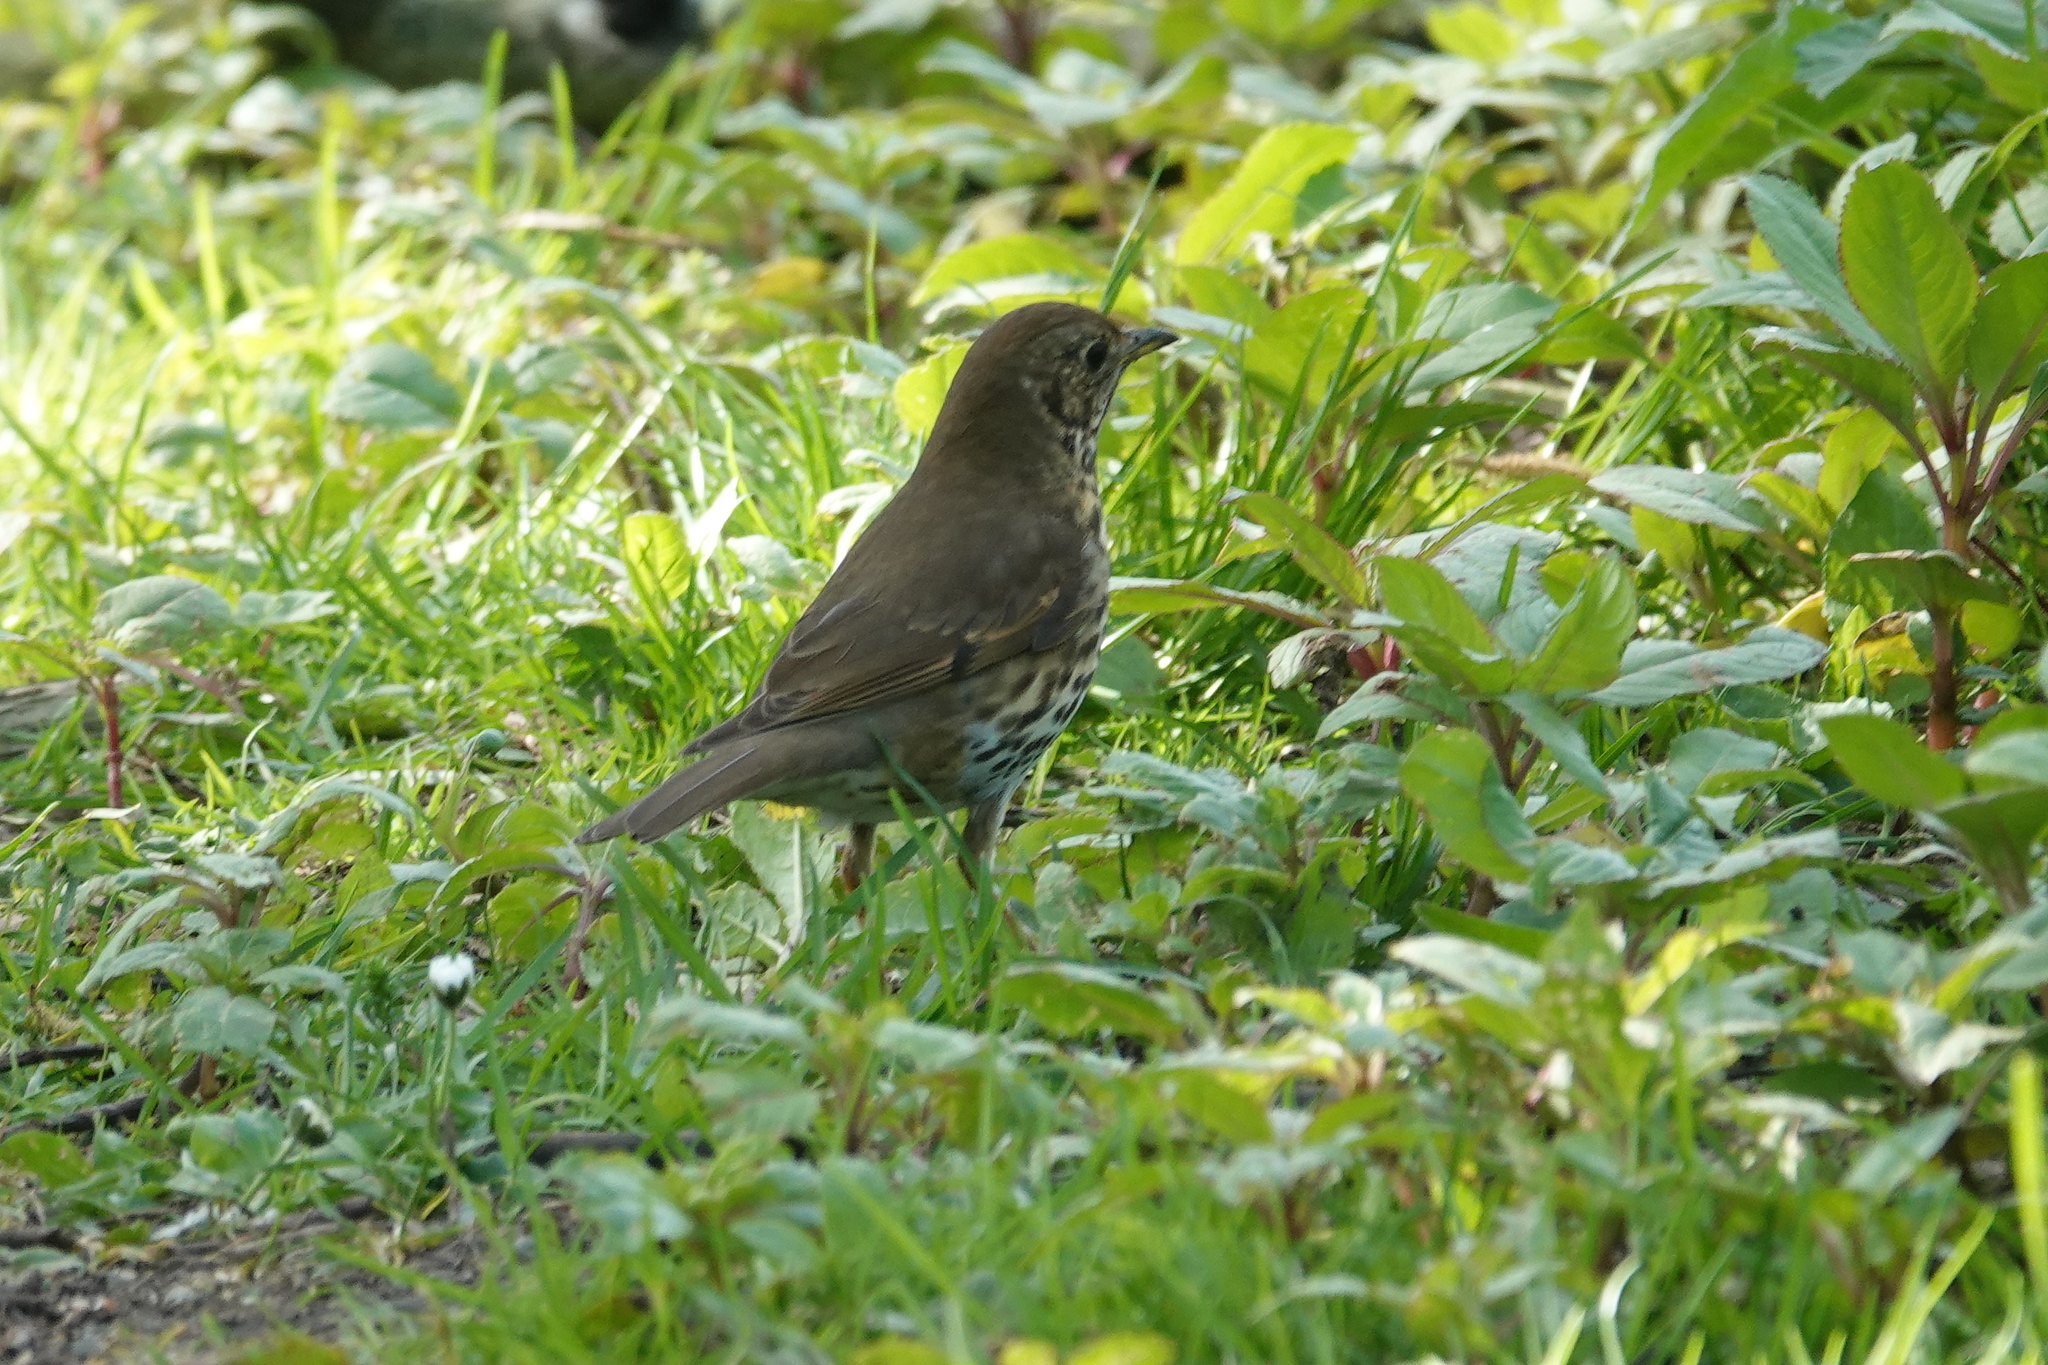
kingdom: Animalia
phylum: Chordata
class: Aves
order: Passeriformes
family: Turdidae
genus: Turdus
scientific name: Turdus philomelos
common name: Song thrush
